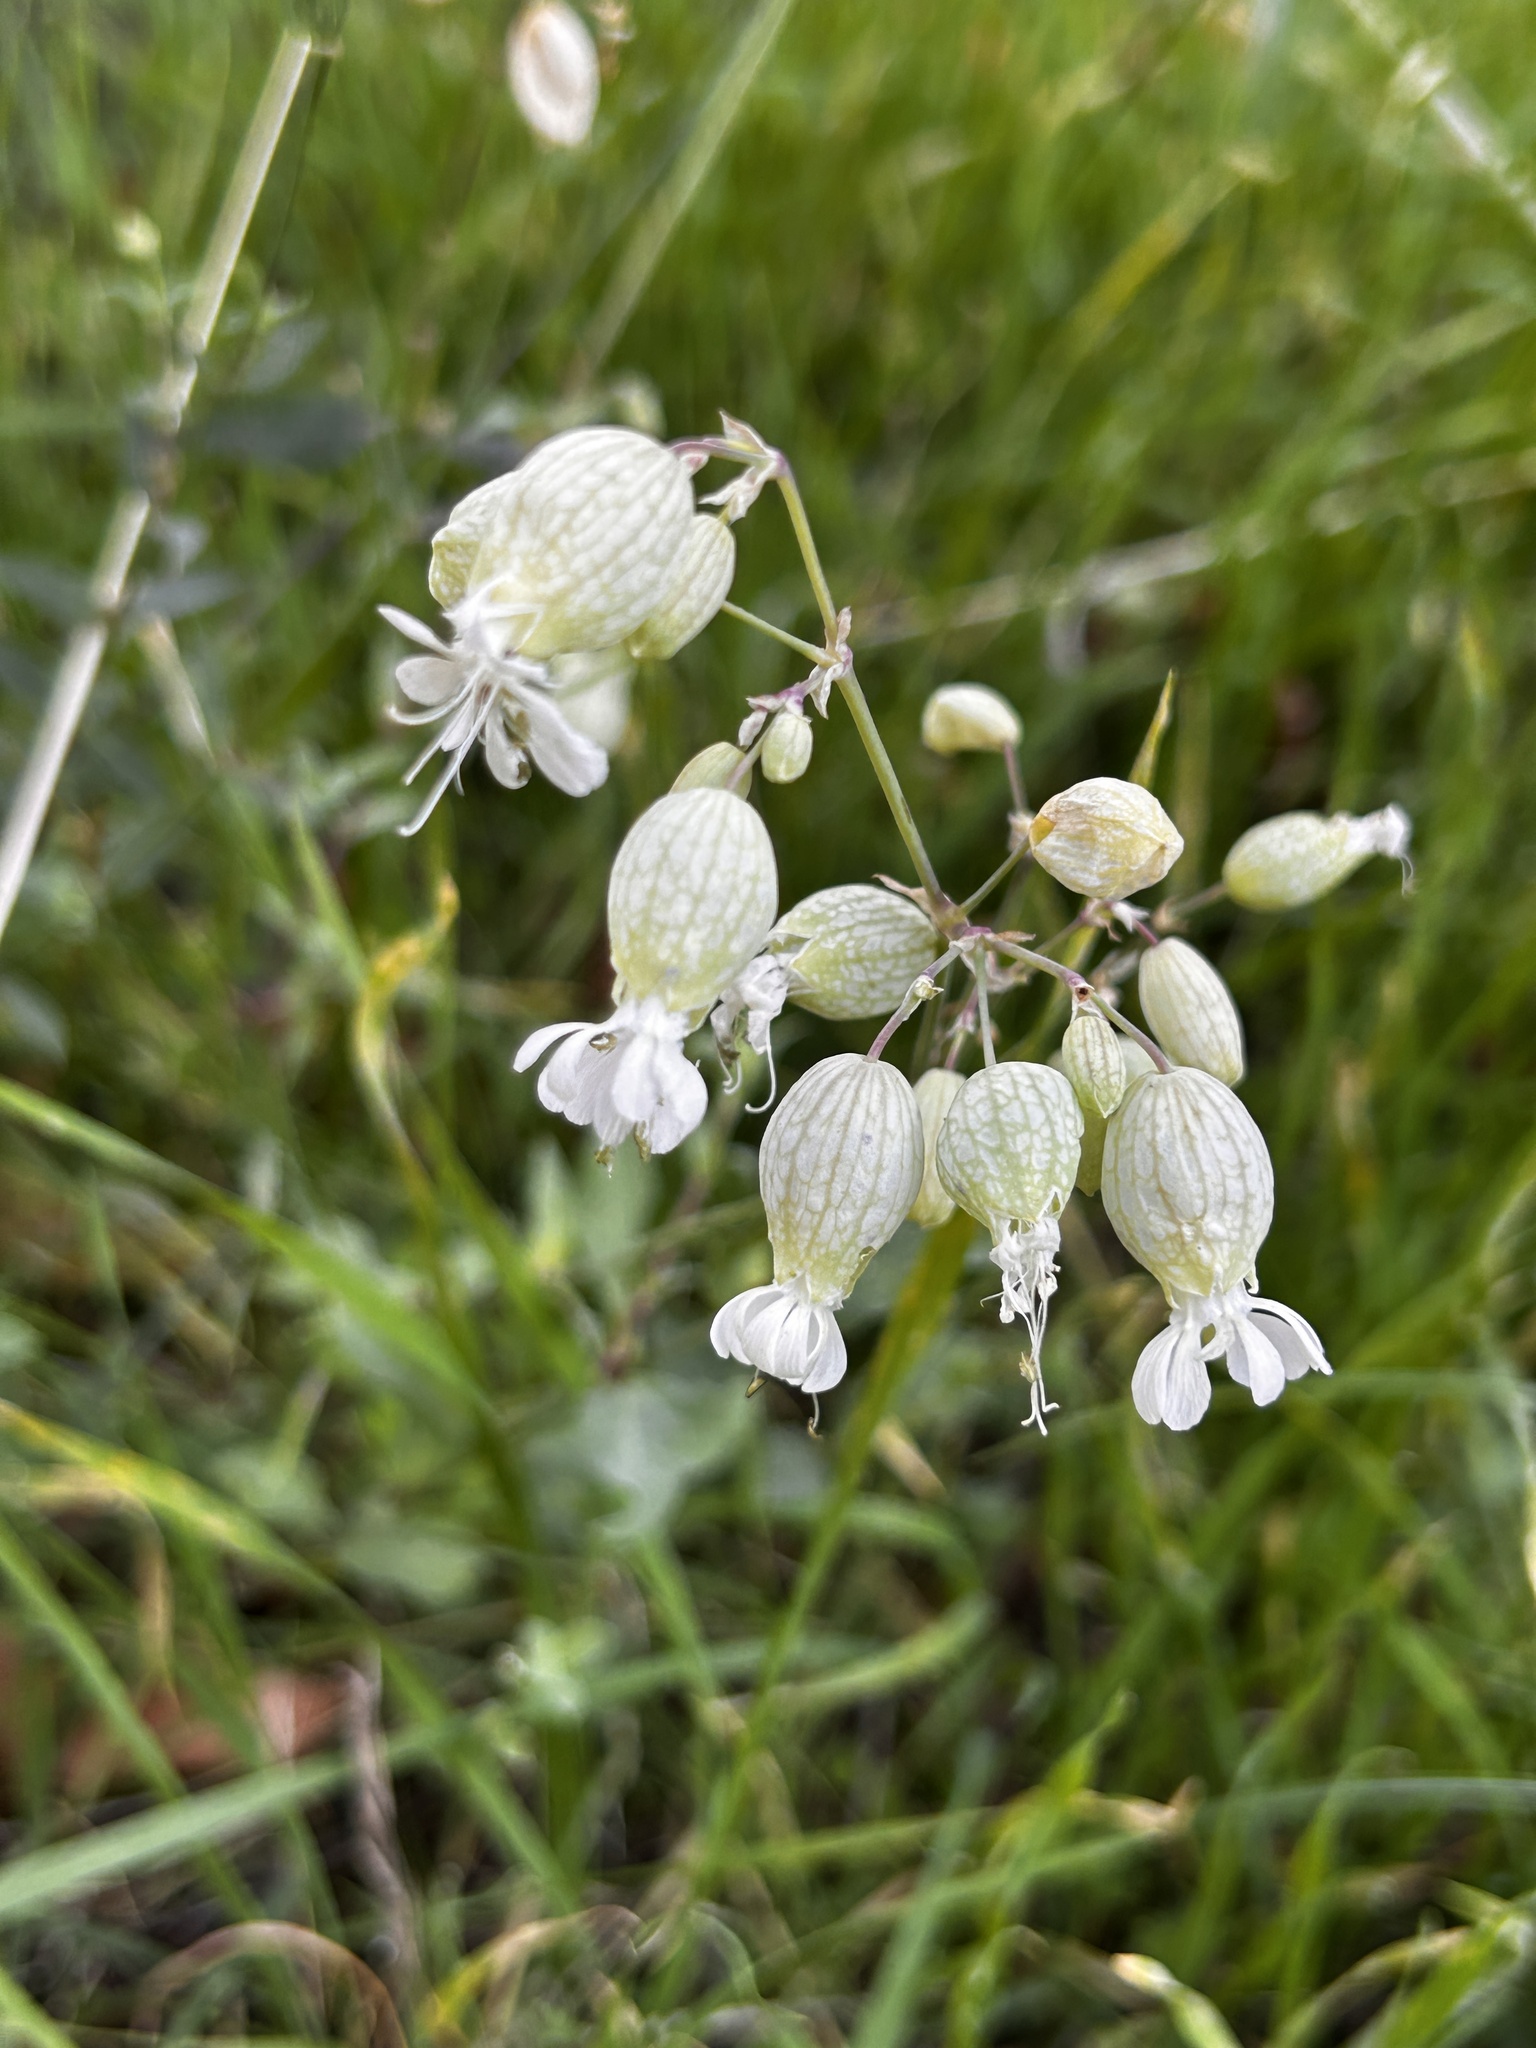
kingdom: Plantae
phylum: Tracheophyta
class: Magnoliopsida
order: Caryophyllales
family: Caryophyllaceae
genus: Silene
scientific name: Silene vulgaris
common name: Bladder campion
